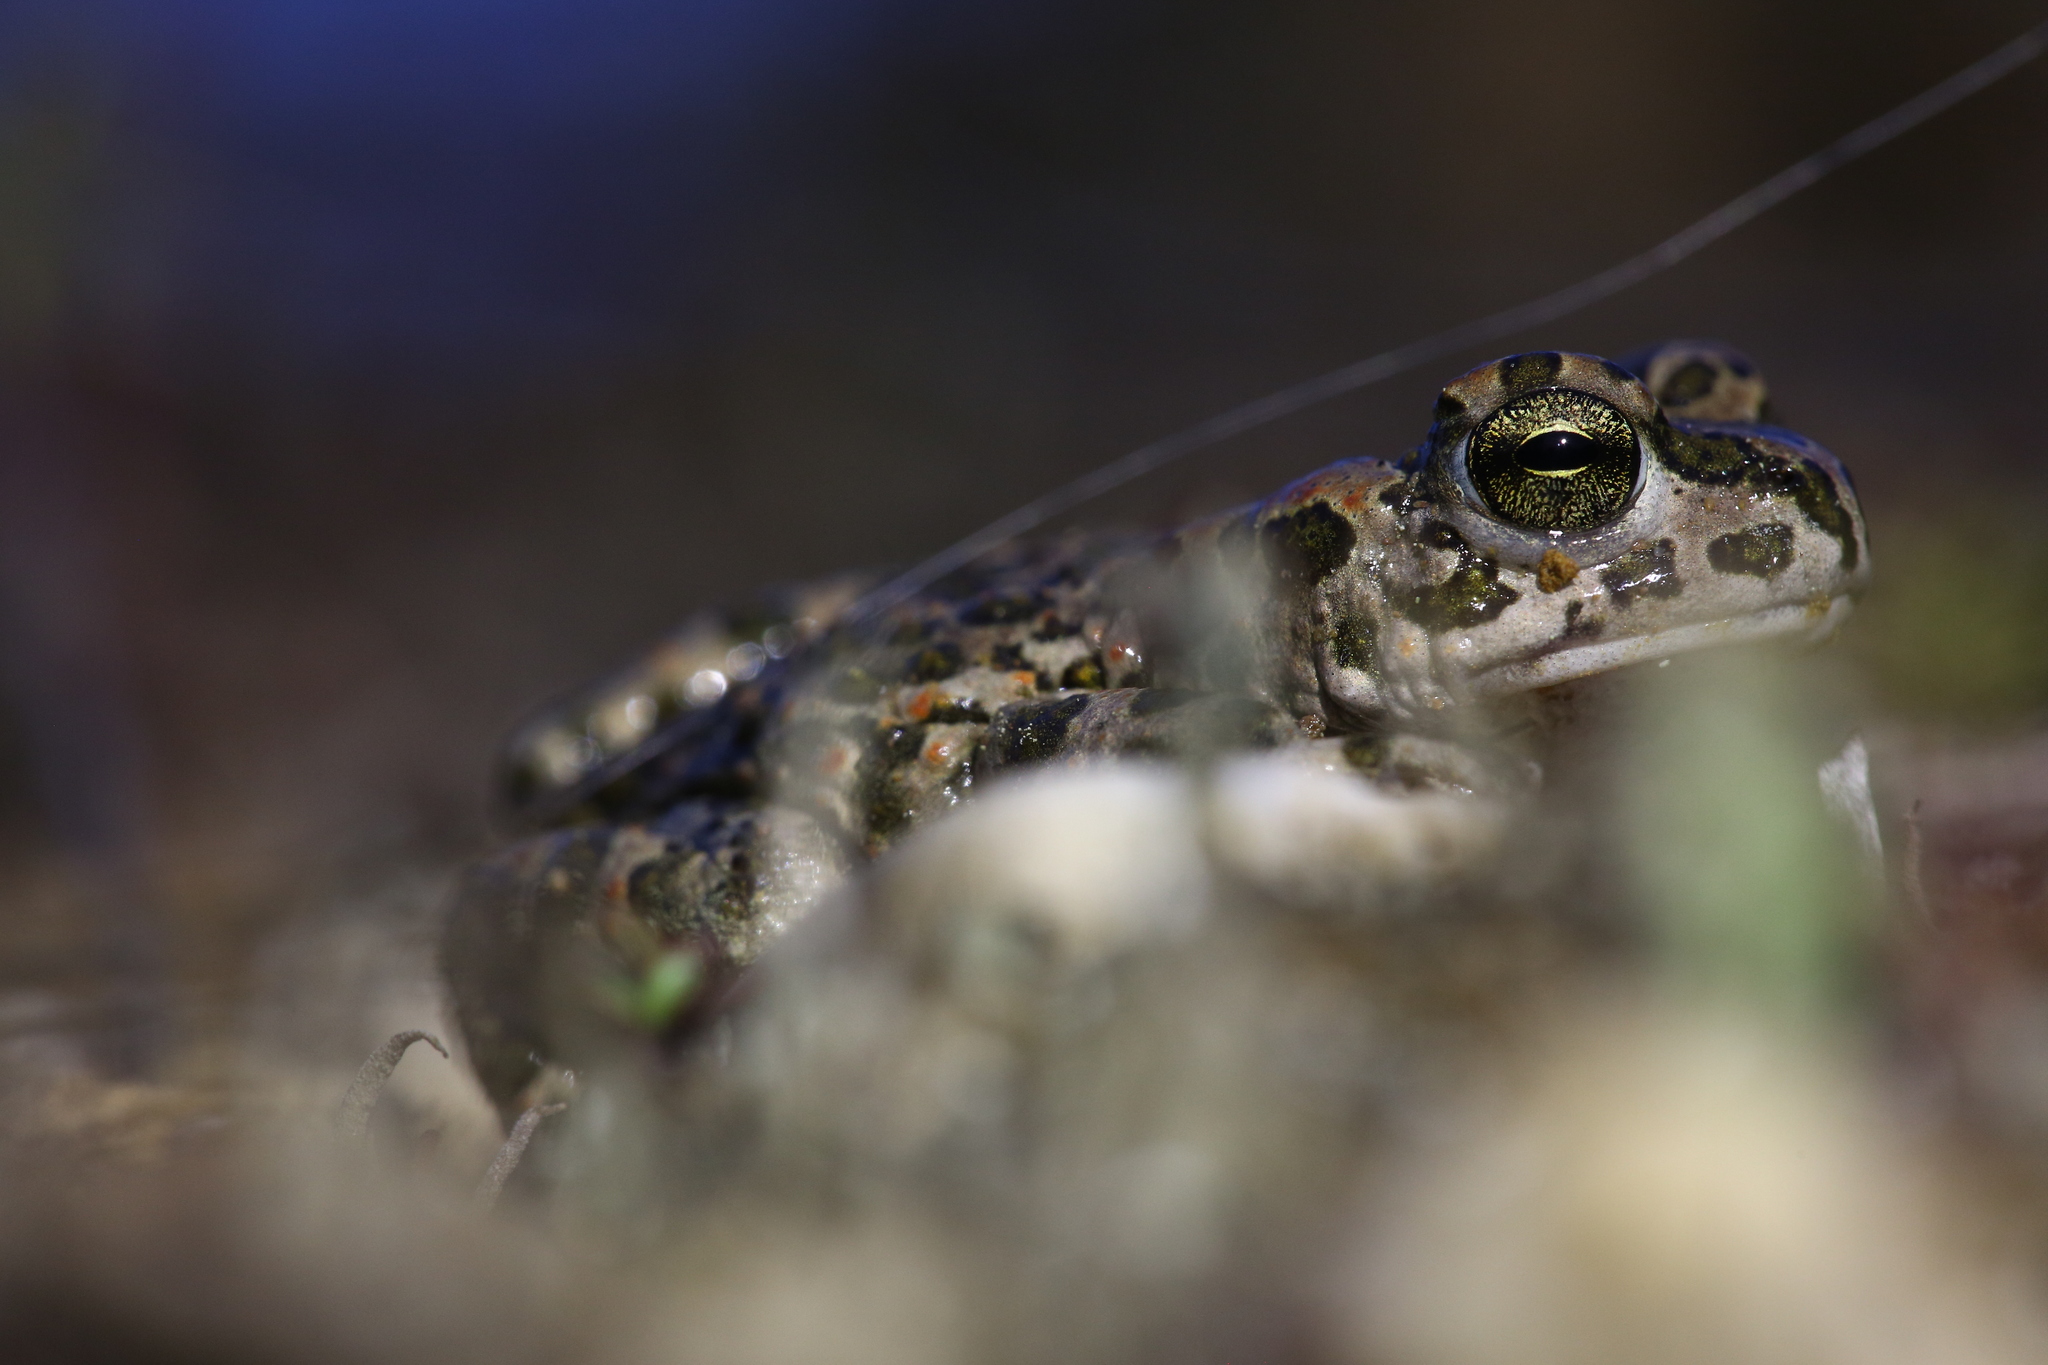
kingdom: Animalia
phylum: Chordata
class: Amphibia
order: Anura
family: Bufonidae
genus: Bufotes
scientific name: Bufotes viridis
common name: European green toad
